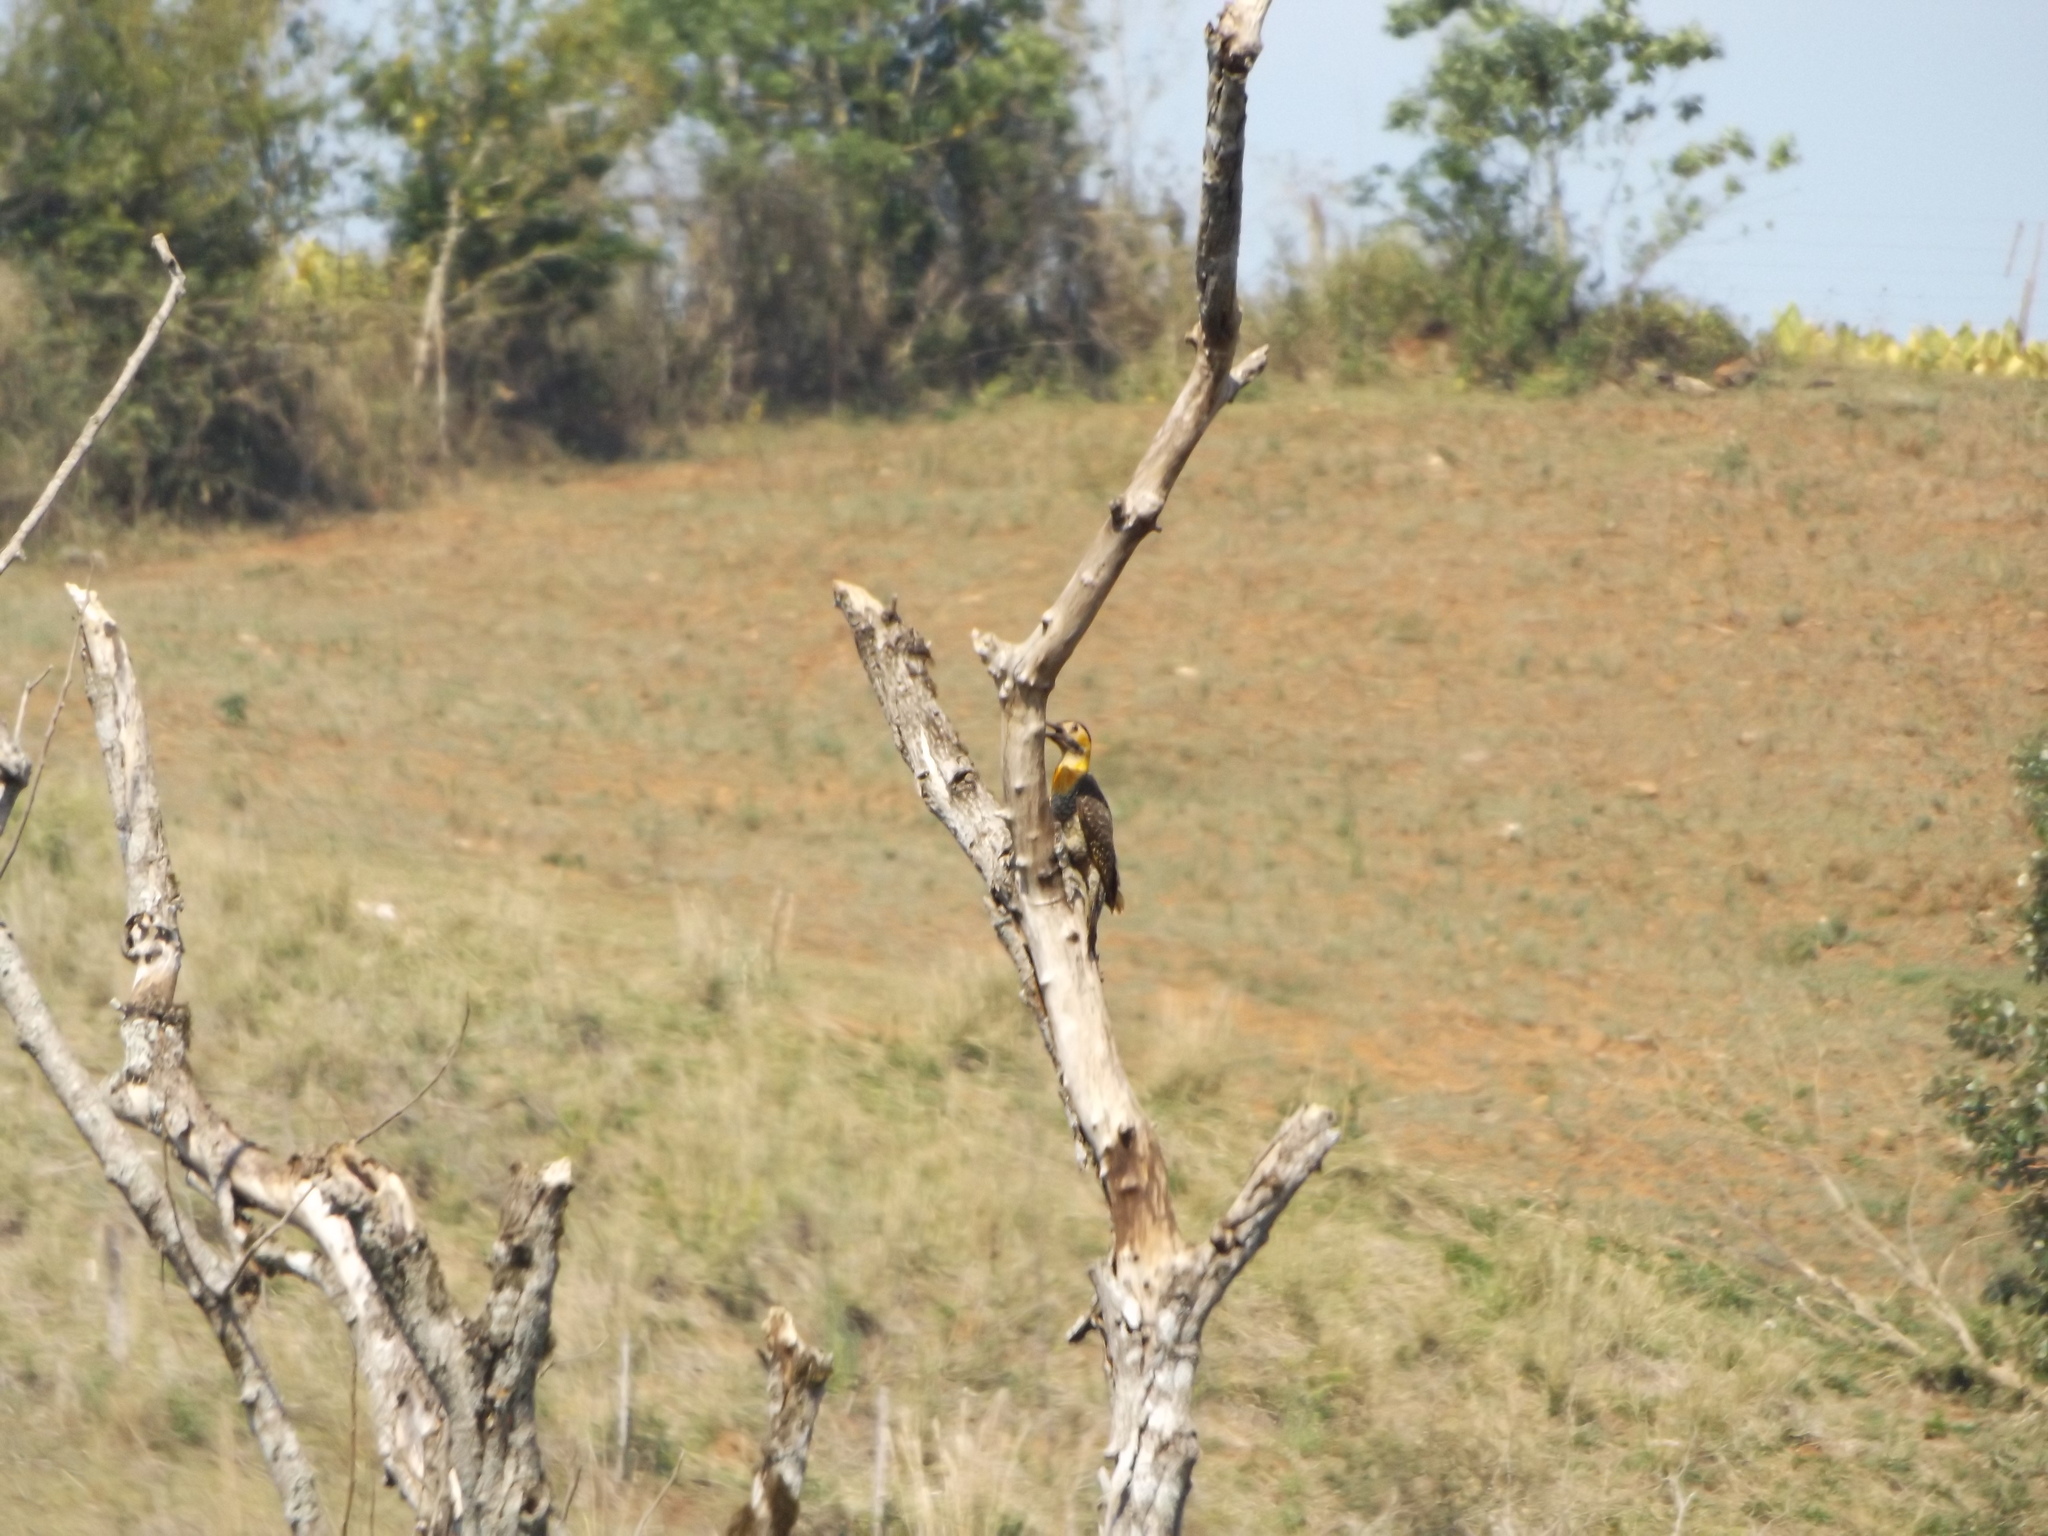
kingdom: Animalia
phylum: Chordata
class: Aves
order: Piciformes
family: Picidae
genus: Colaptes
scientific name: Colaptes campestris
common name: Campo flicker
